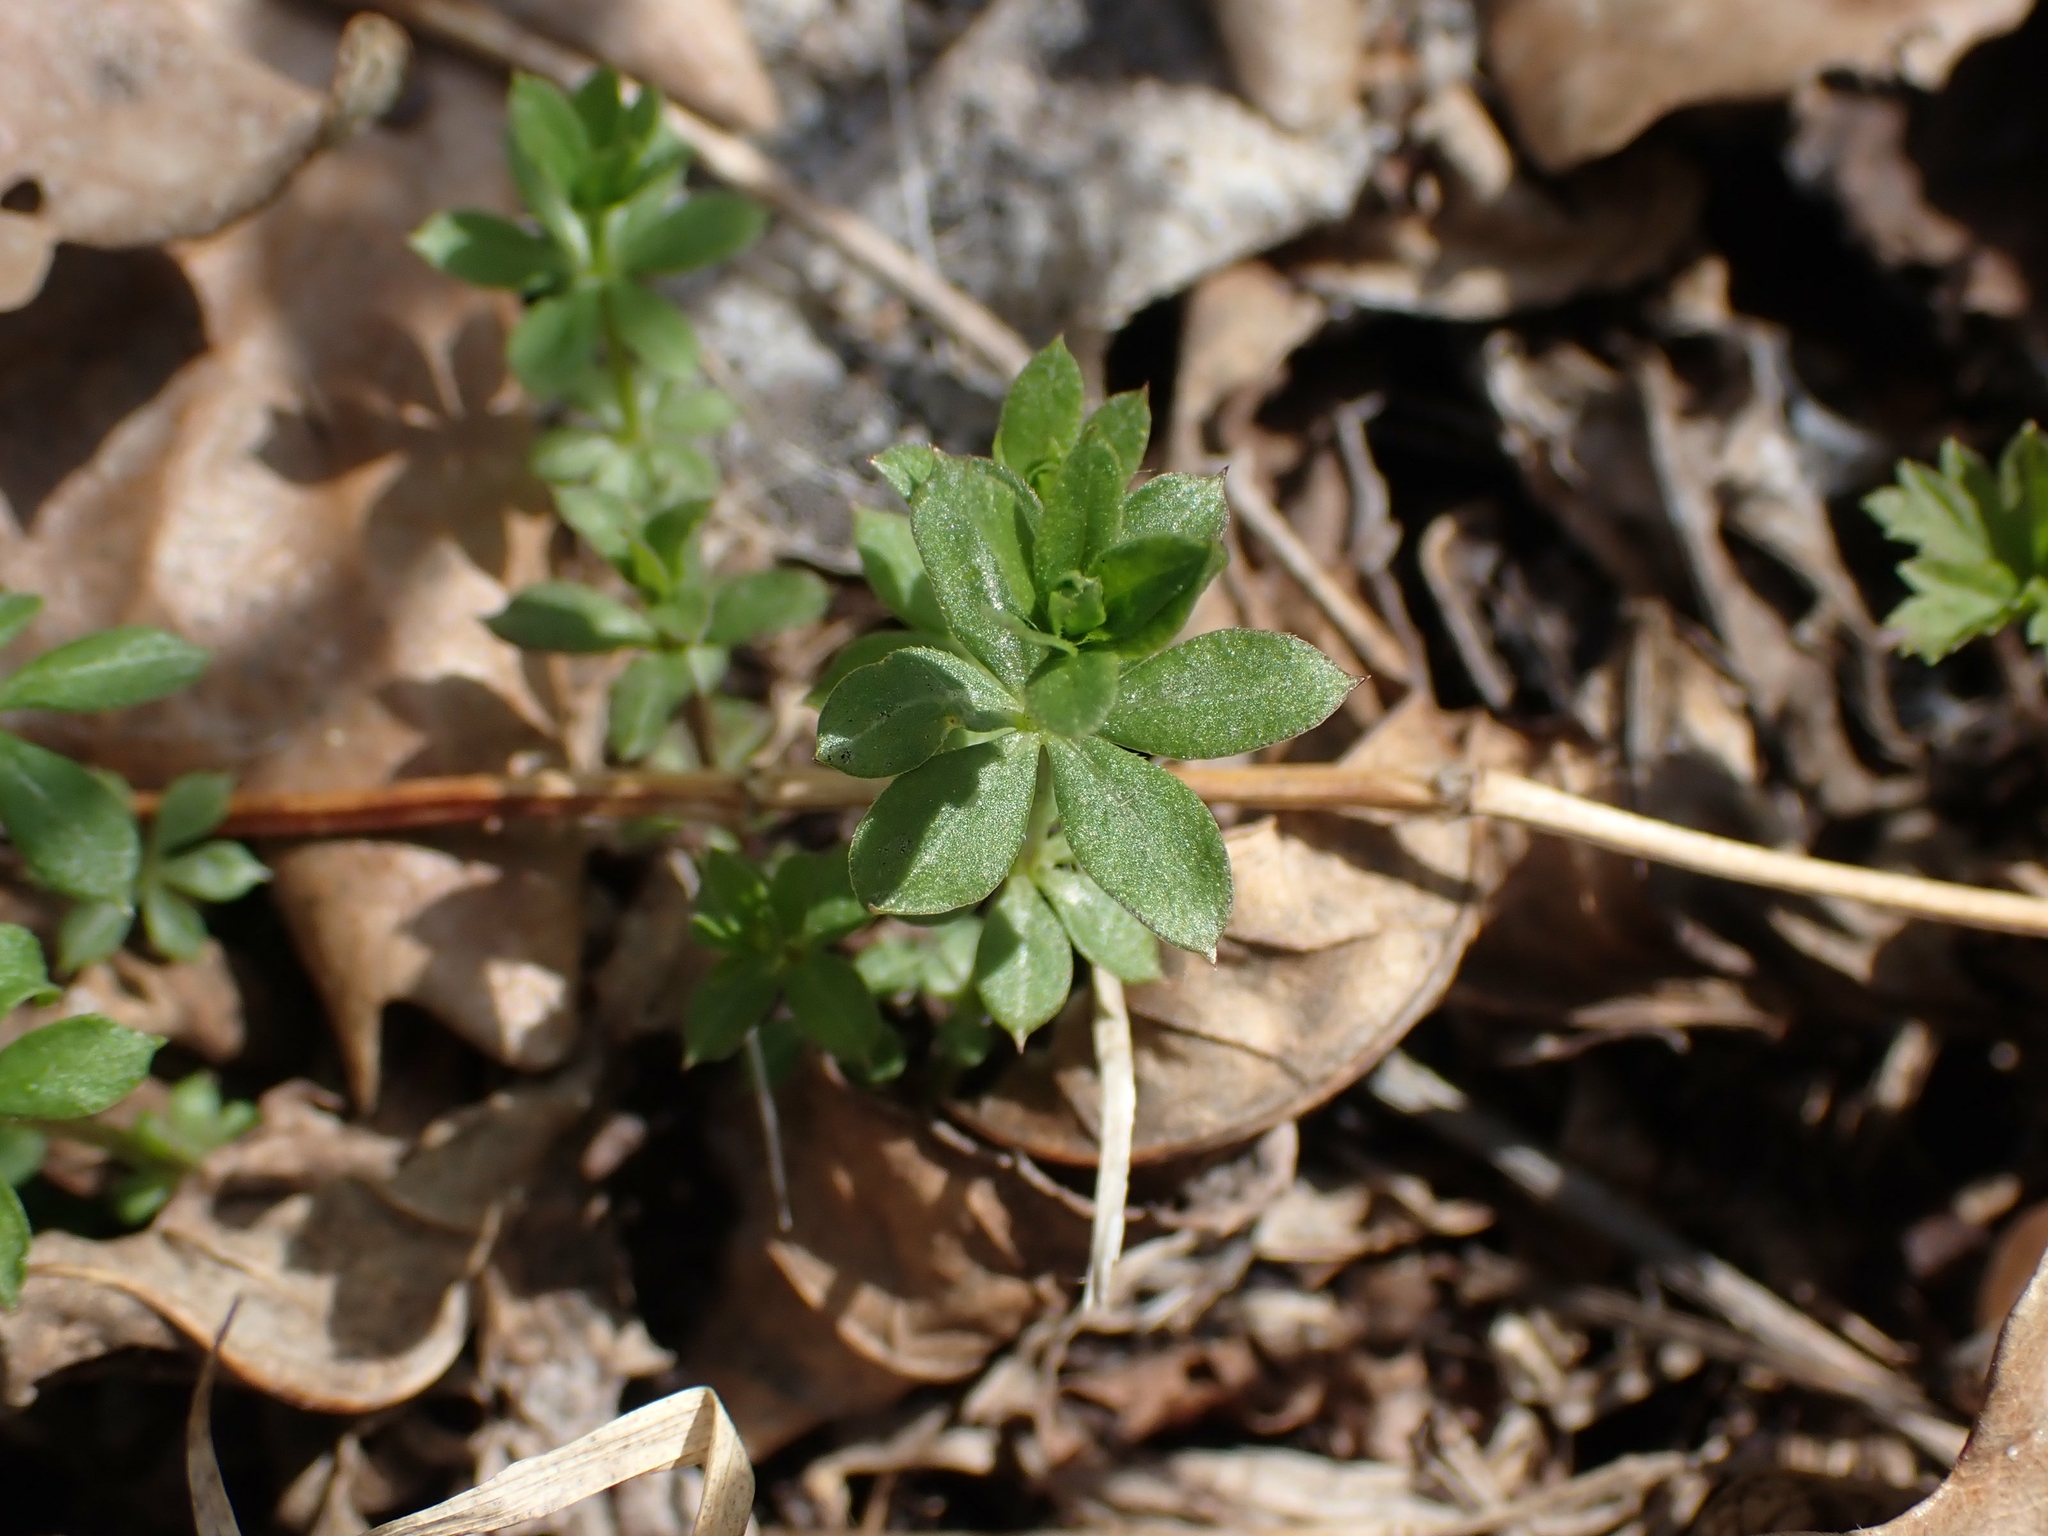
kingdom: Plantae
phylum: Tracheophyta
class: Magnoliopsida
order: Gentianales
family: Rubiaceae
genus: Galium
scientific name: Galium triflorum
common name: Fragrant bedstraw
